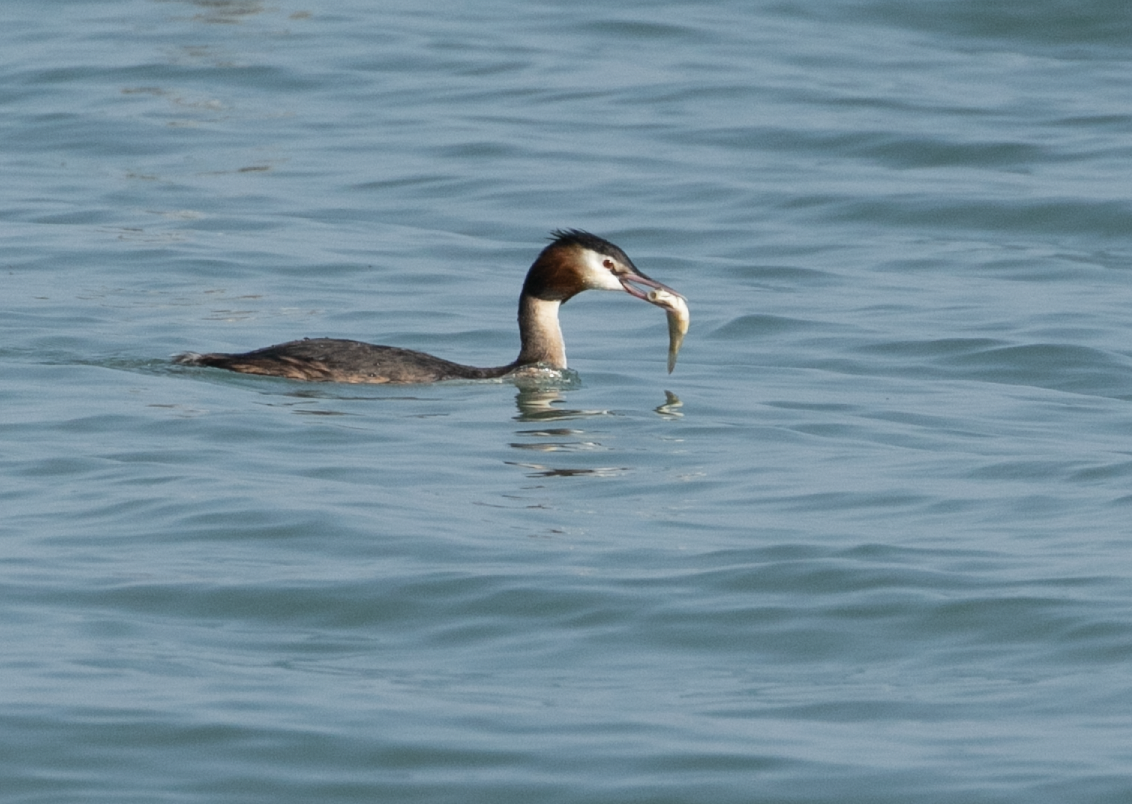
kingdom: Animalia
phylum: Chordata
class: Aves
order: Podicipediformes
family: Podicipedidae
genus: Podiceps
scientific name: Podiceps cristatus
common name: Great crested grebe
